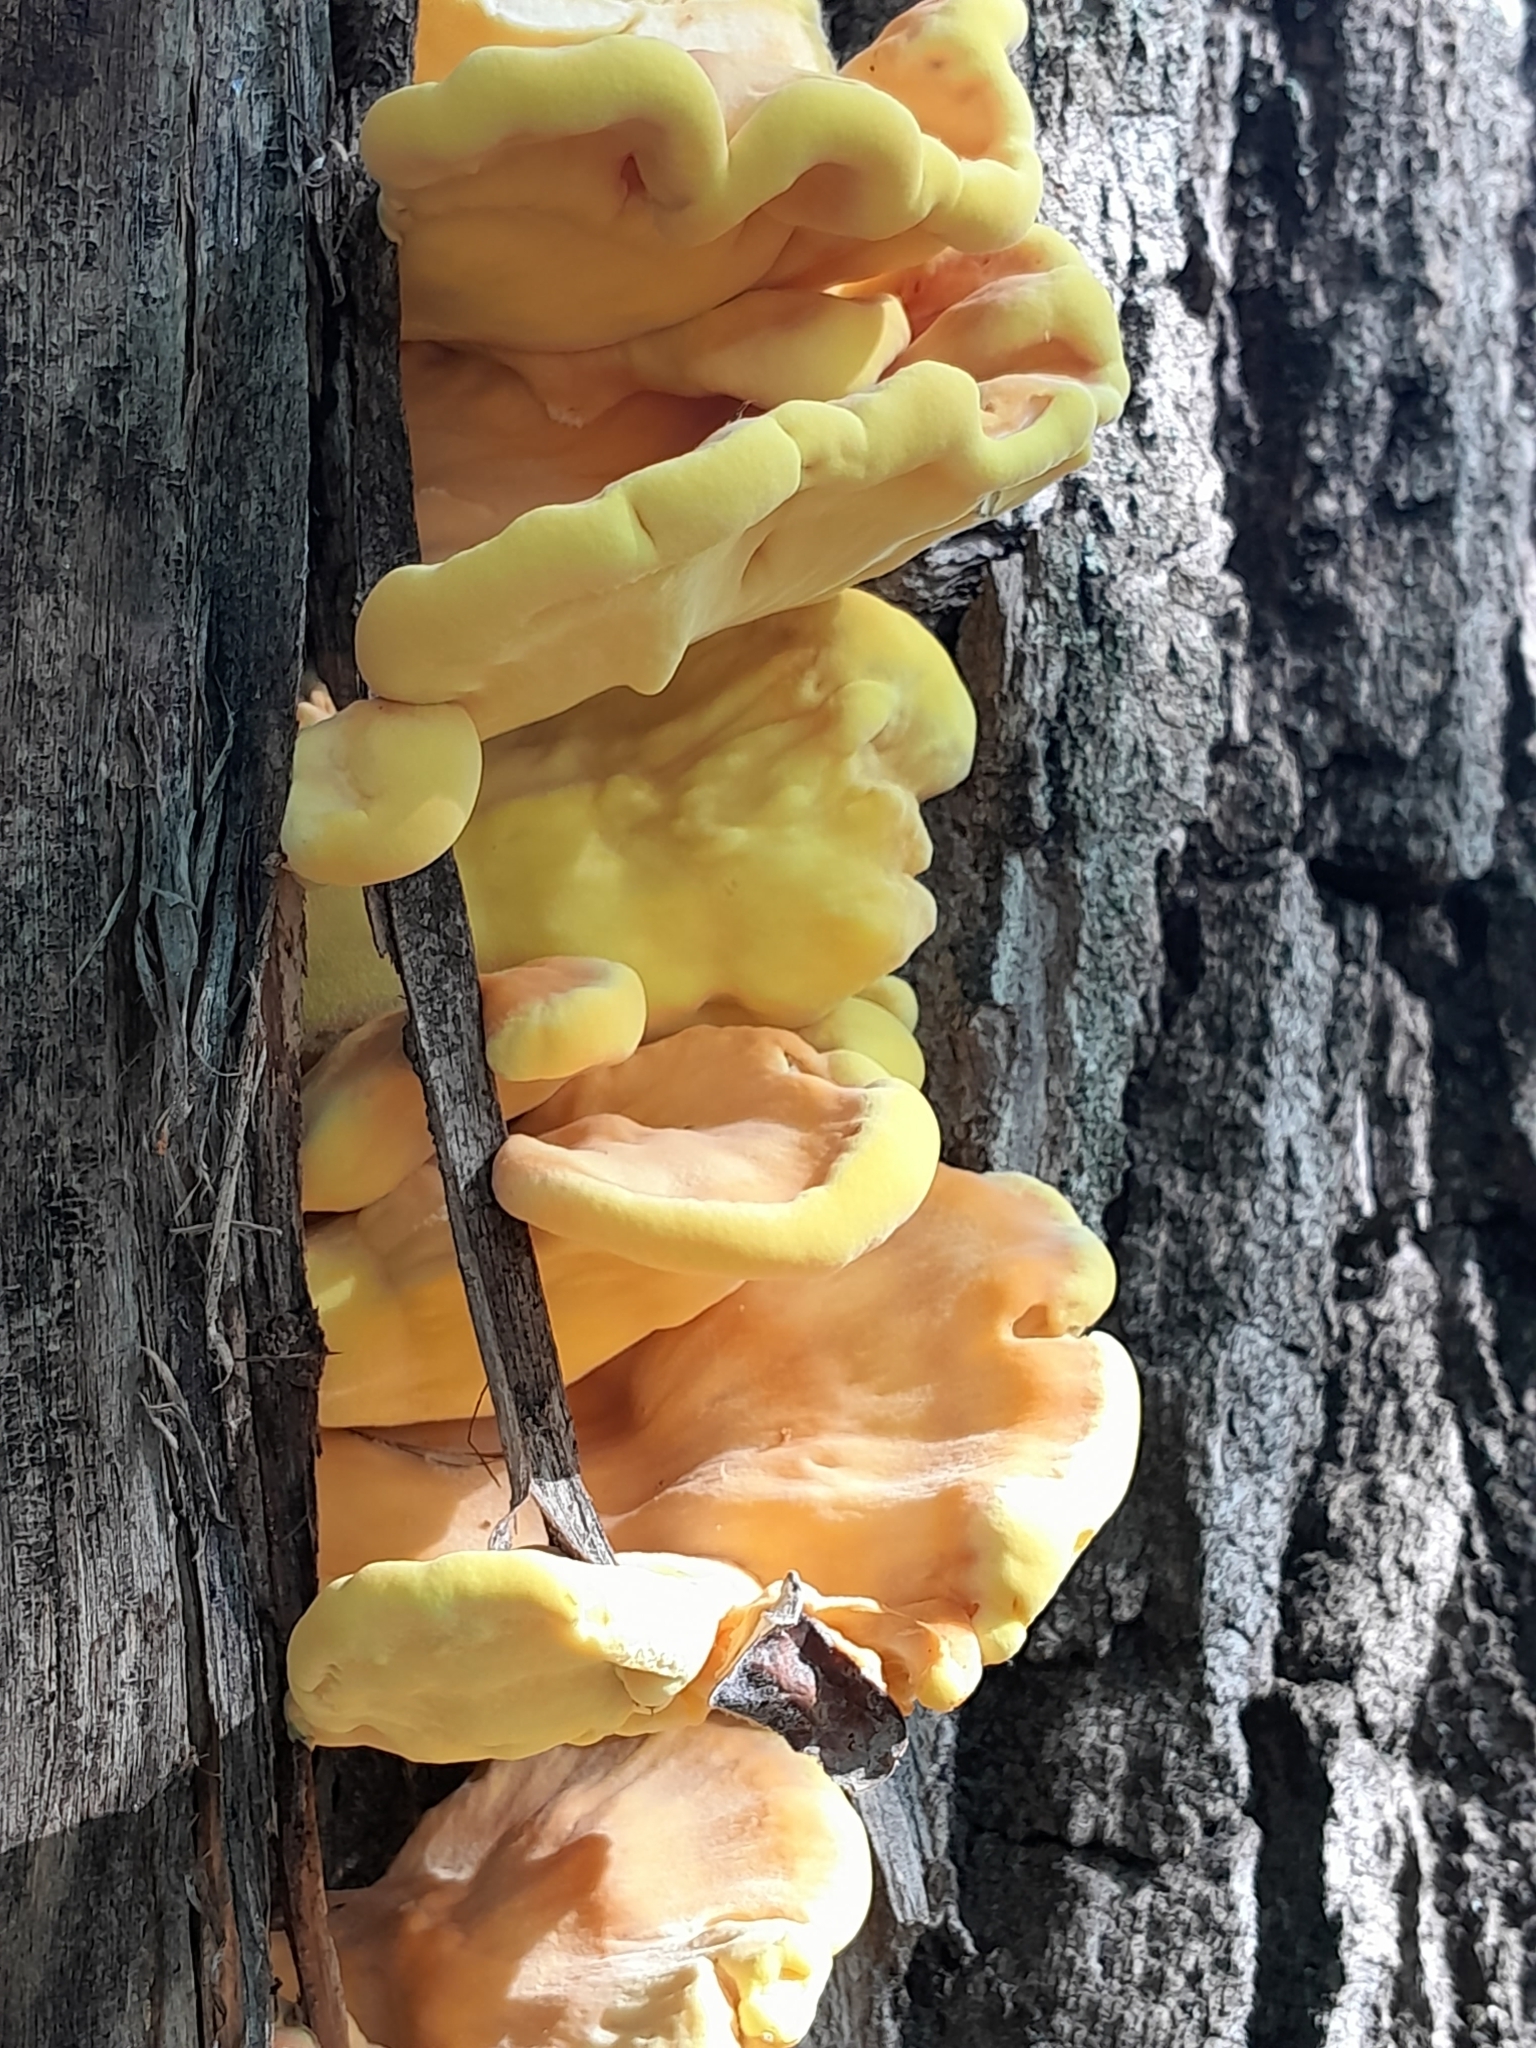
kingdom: Fungi
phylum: Basidiomycota
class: Agaricomycetes
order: Polyporales
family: Laetiporaceae
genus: Laetiporus
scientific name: Laetiporus sulphureus
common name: Chicken of the woods
